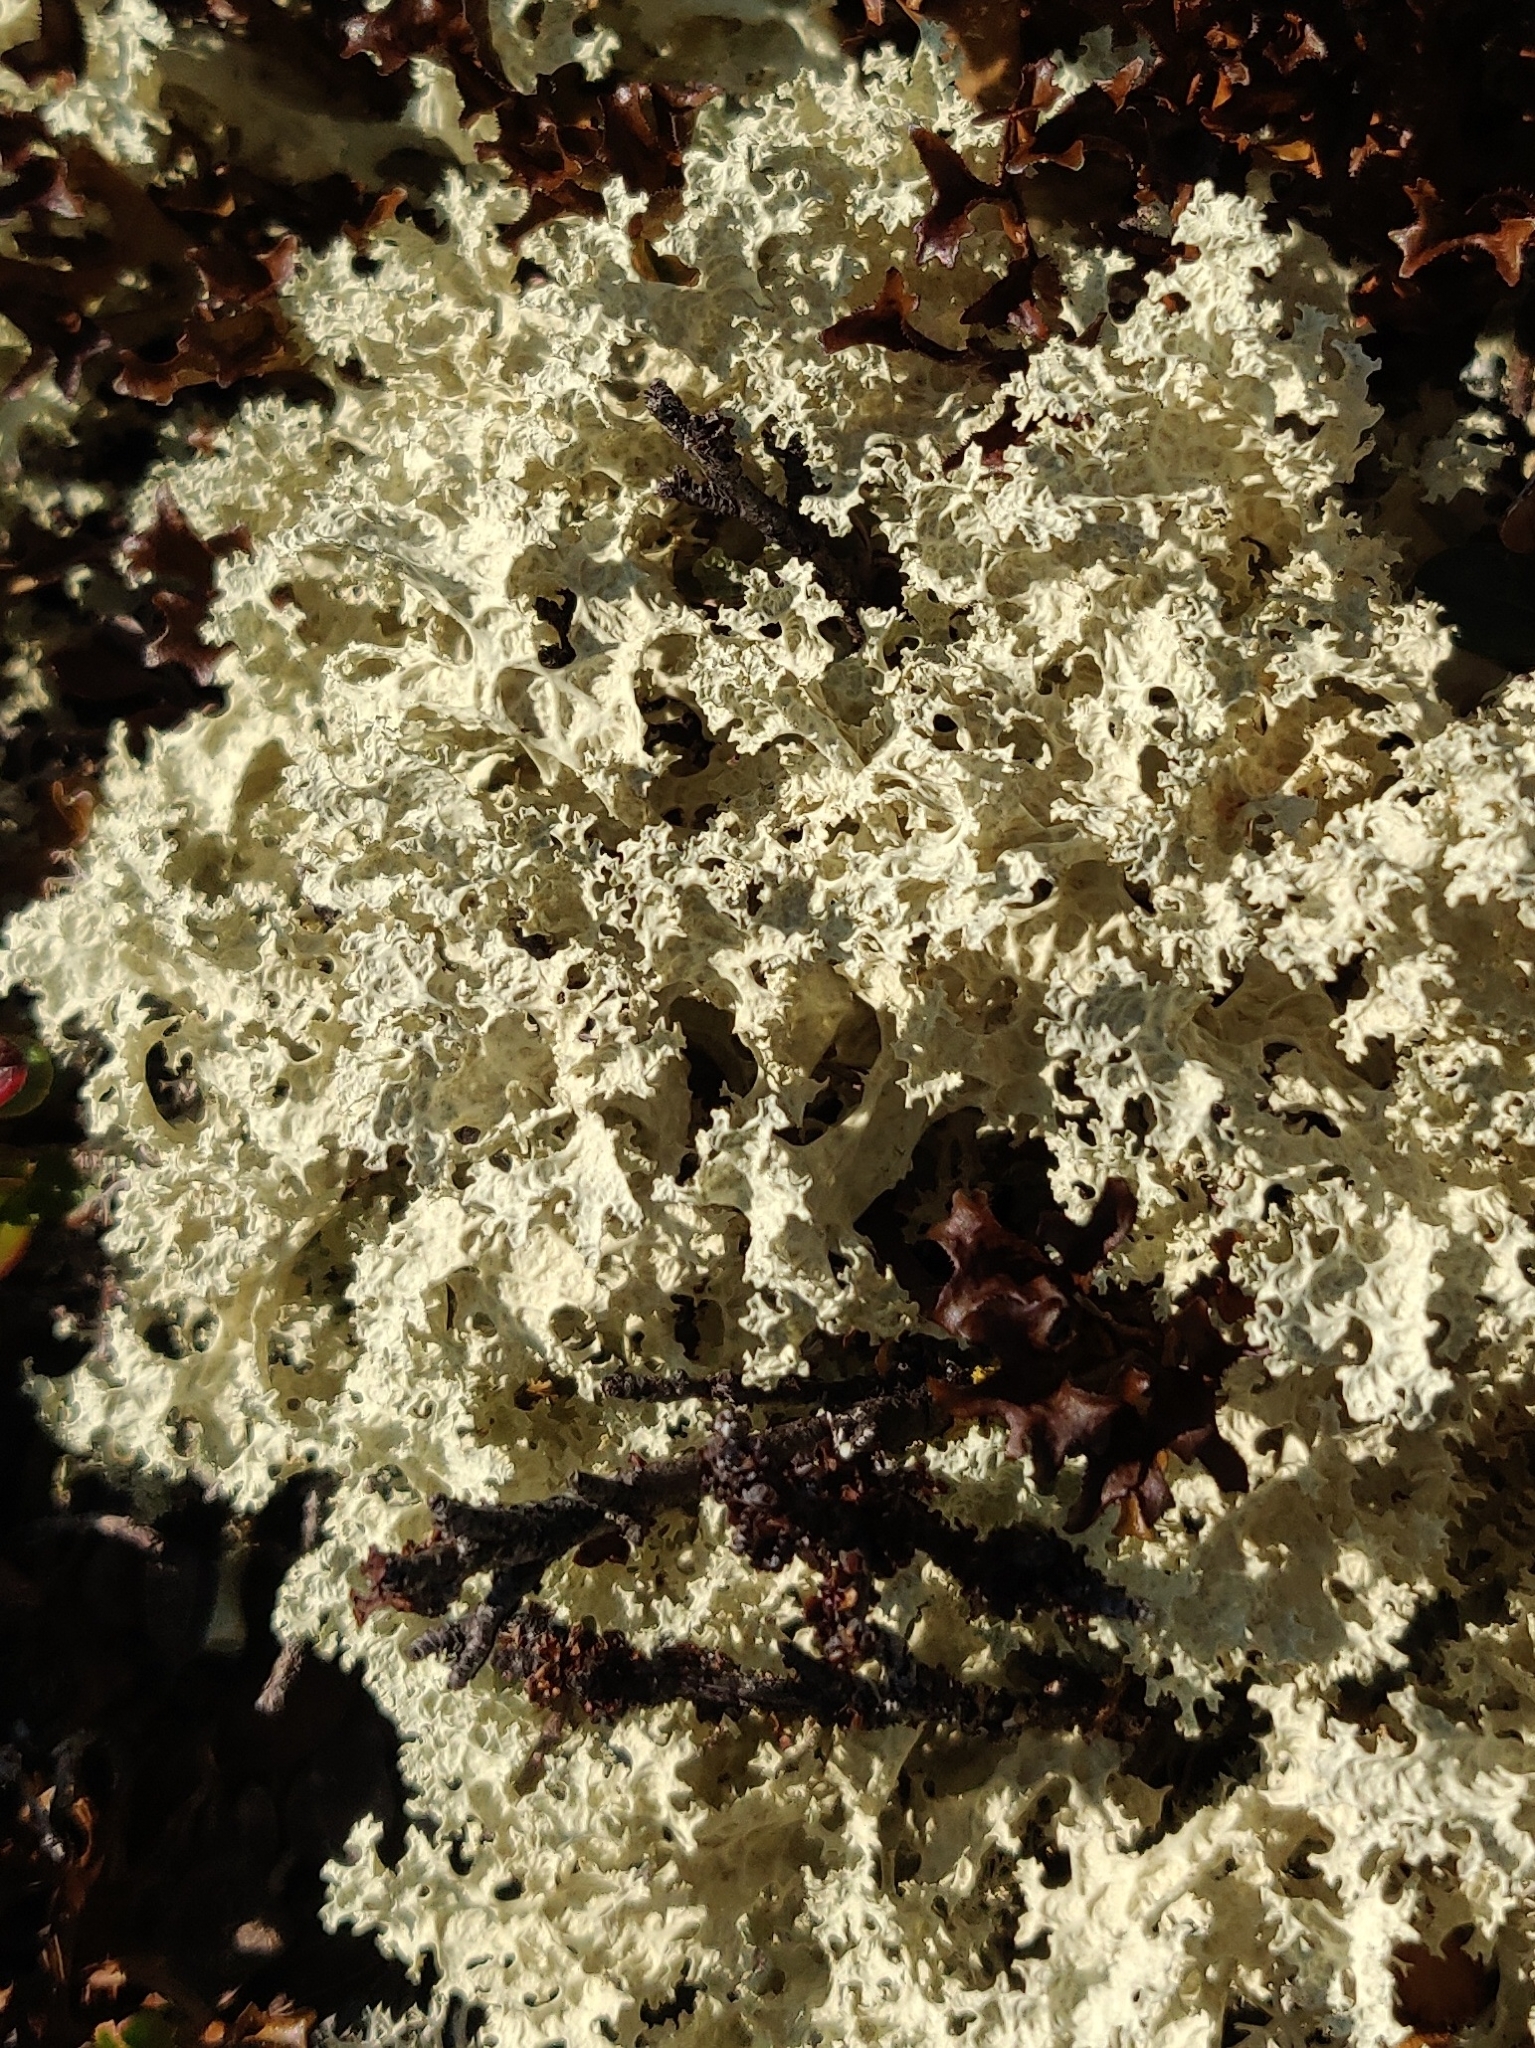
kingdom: Fungi
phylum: Ascomycota
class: Lecanoromycetes
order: Lecanorales
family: Parmeliaceae
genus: Nephromopsis
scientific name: Nephromopsis nivalis
